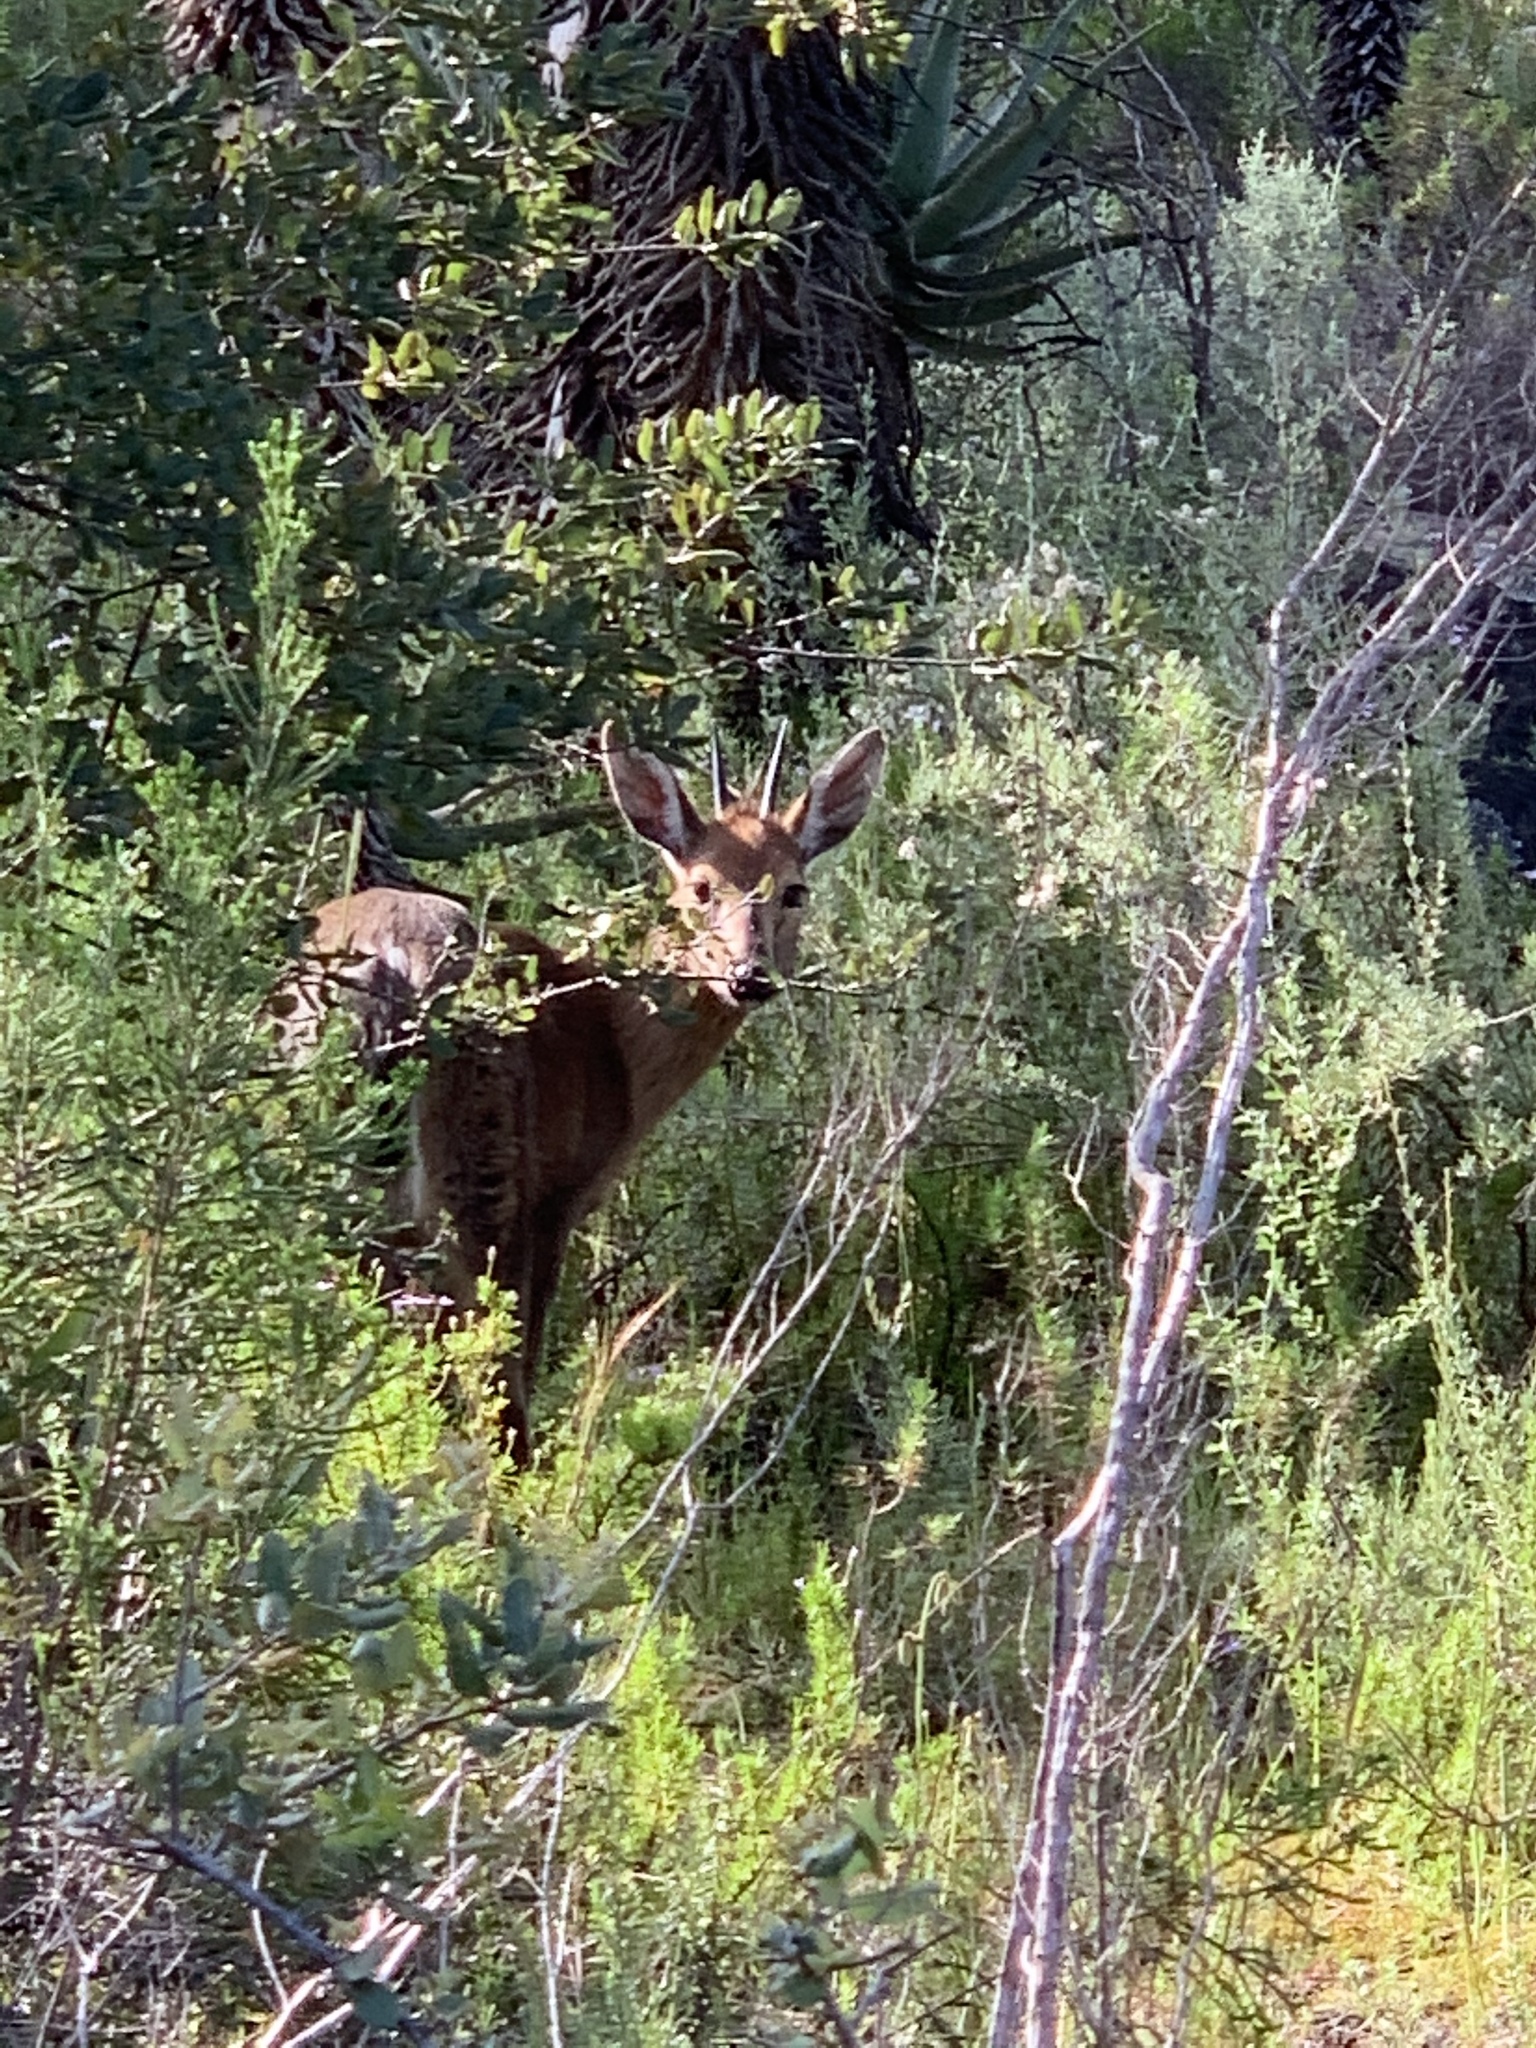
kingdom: Animalia
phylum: Chordata
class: Mammalia
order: Artiodactyla
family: Bovidae
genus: Sylvicapra
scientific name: Sylvicapra grimmia
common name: Bush duiker
